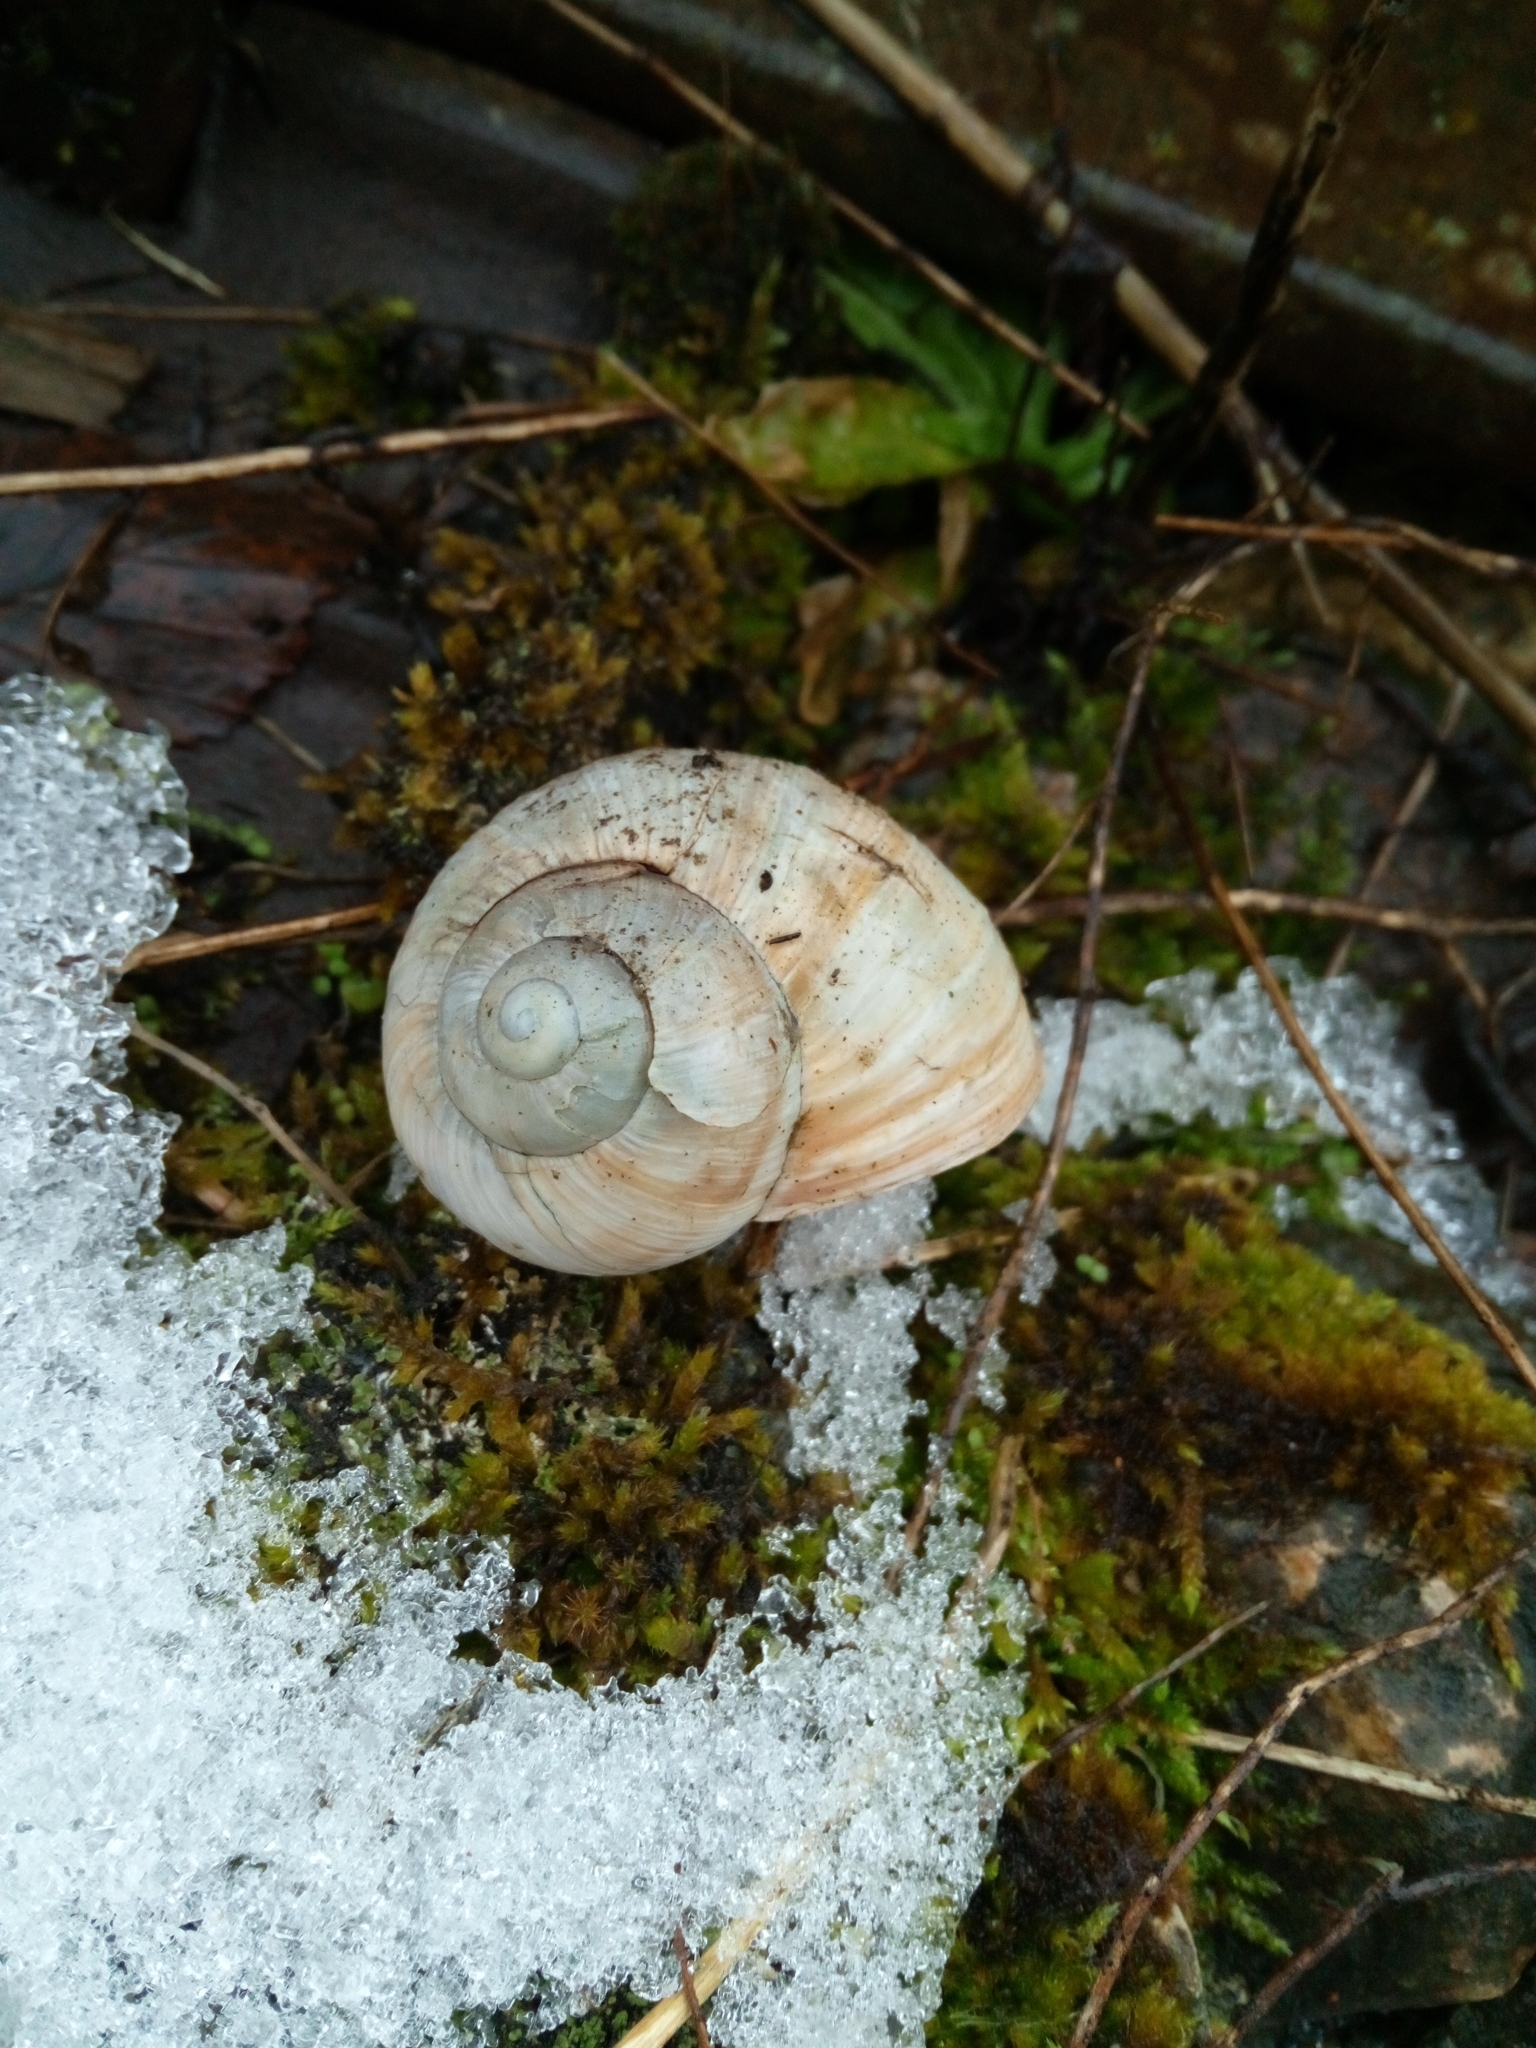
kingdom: Animalia
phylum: Mollusca
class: Gastropoda
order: Stylommatophora
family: Helicidae
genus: Helix
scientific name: Helix pomatia
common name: Roman snail
